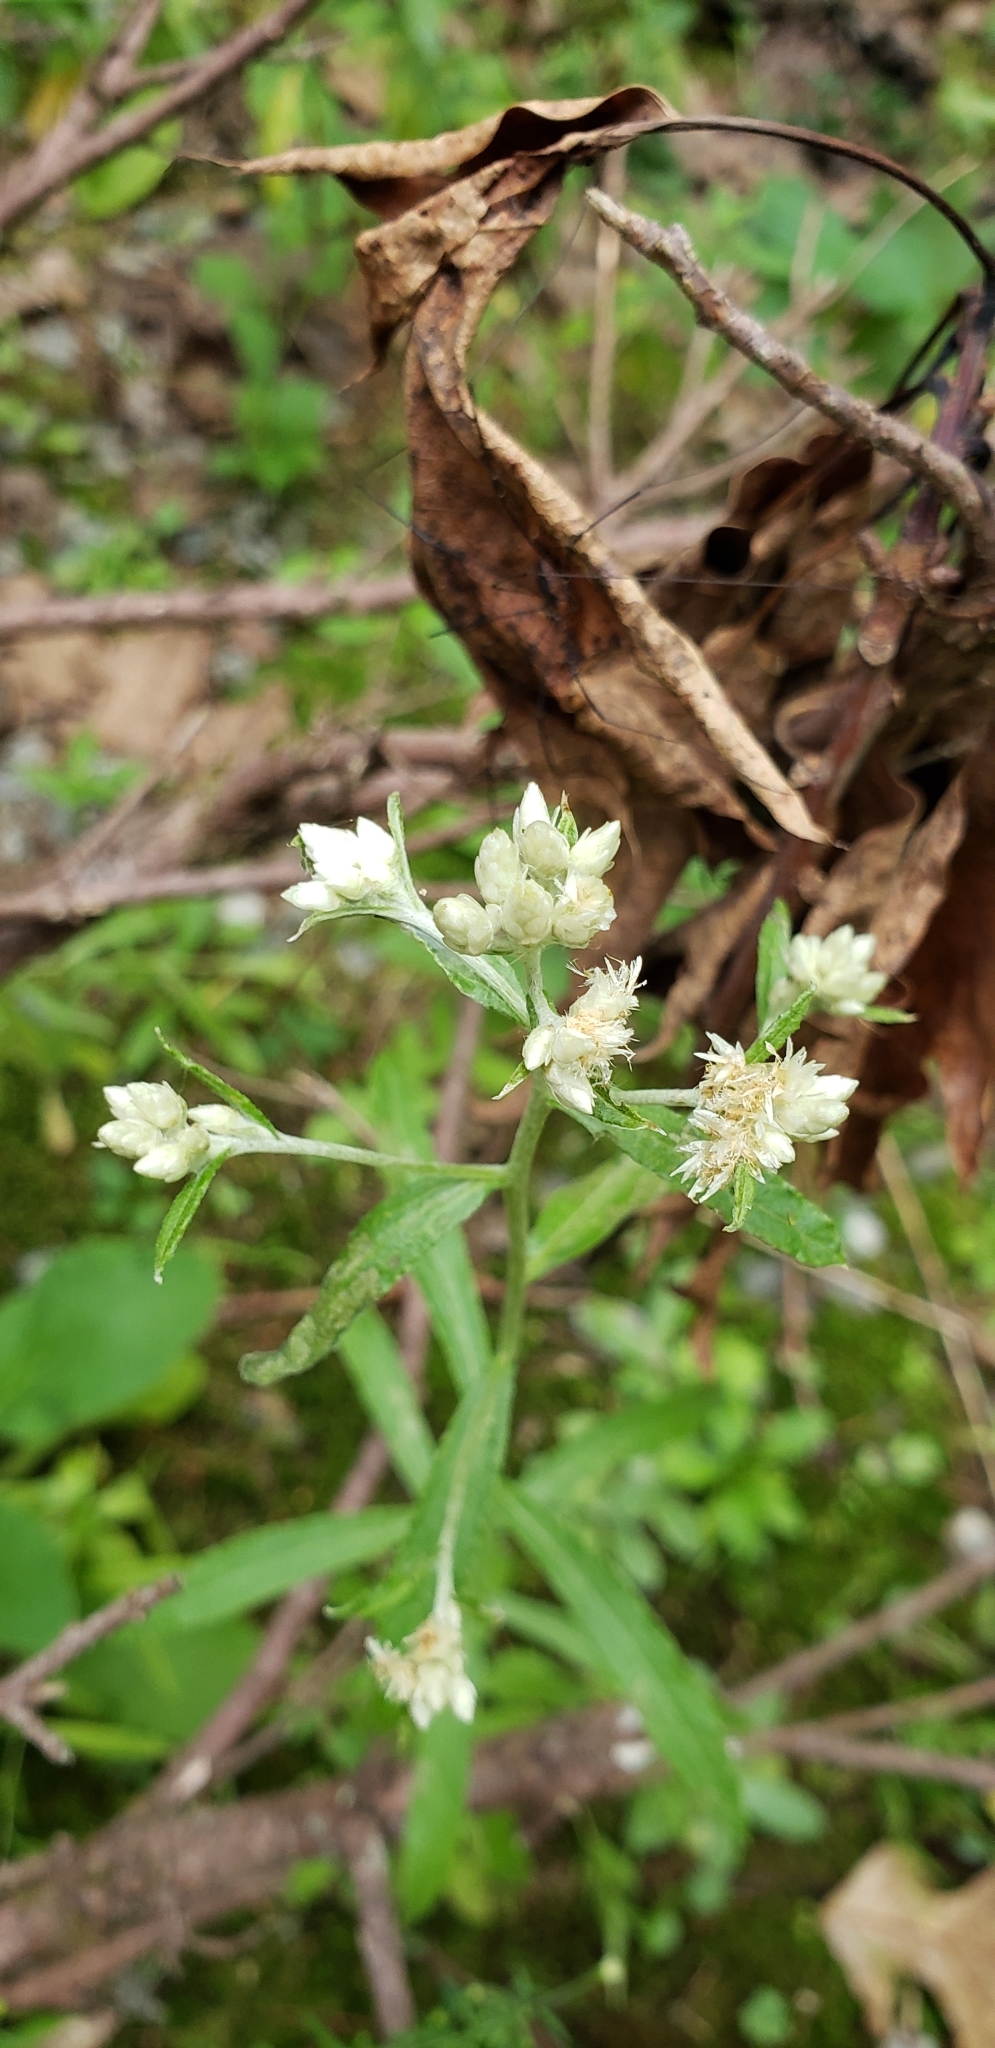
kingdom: Plantae
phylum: Tracheophyta
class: Magnoliopsida
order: Asterales
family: Asteraceae
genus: Pseudognaphalium
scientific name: Pseudognaphalium obtusifolium
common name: Eastern rabbit-tobacco
